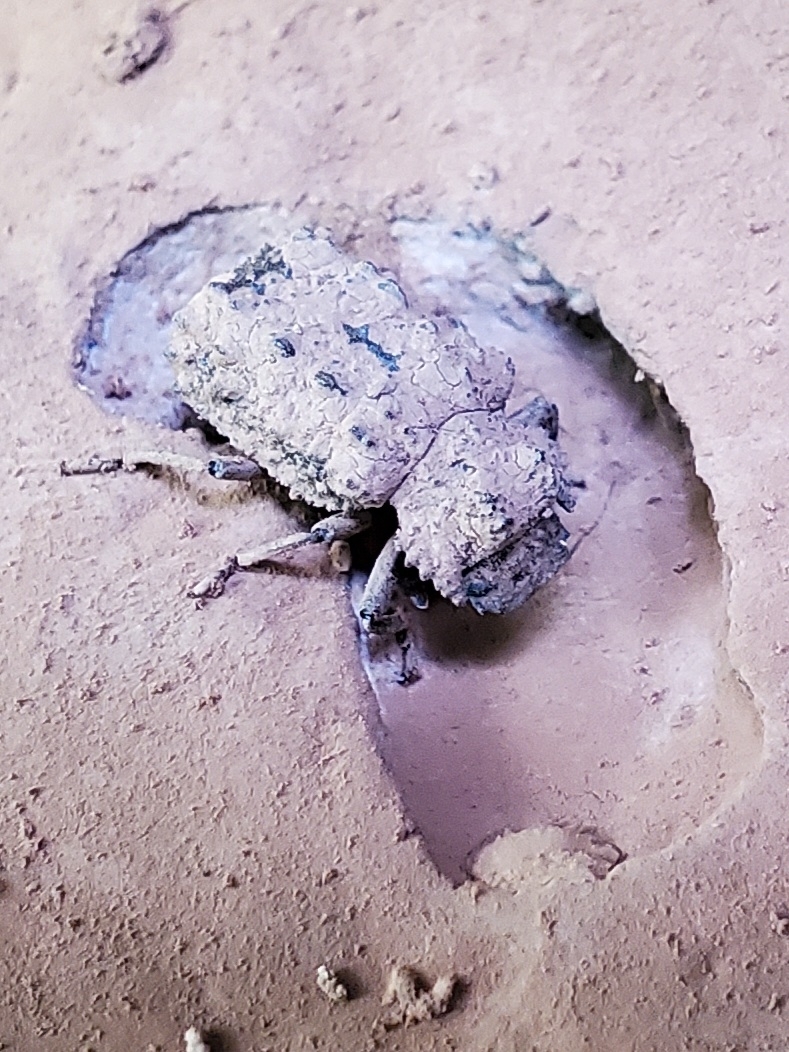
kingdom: Animalia
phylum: Arthropoda
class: Insecta
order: Coleoptera
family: Tenebrionidae
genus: Gnatocerus
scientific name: Gnatocerus cornutus
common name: Broad-horned flour beetle
